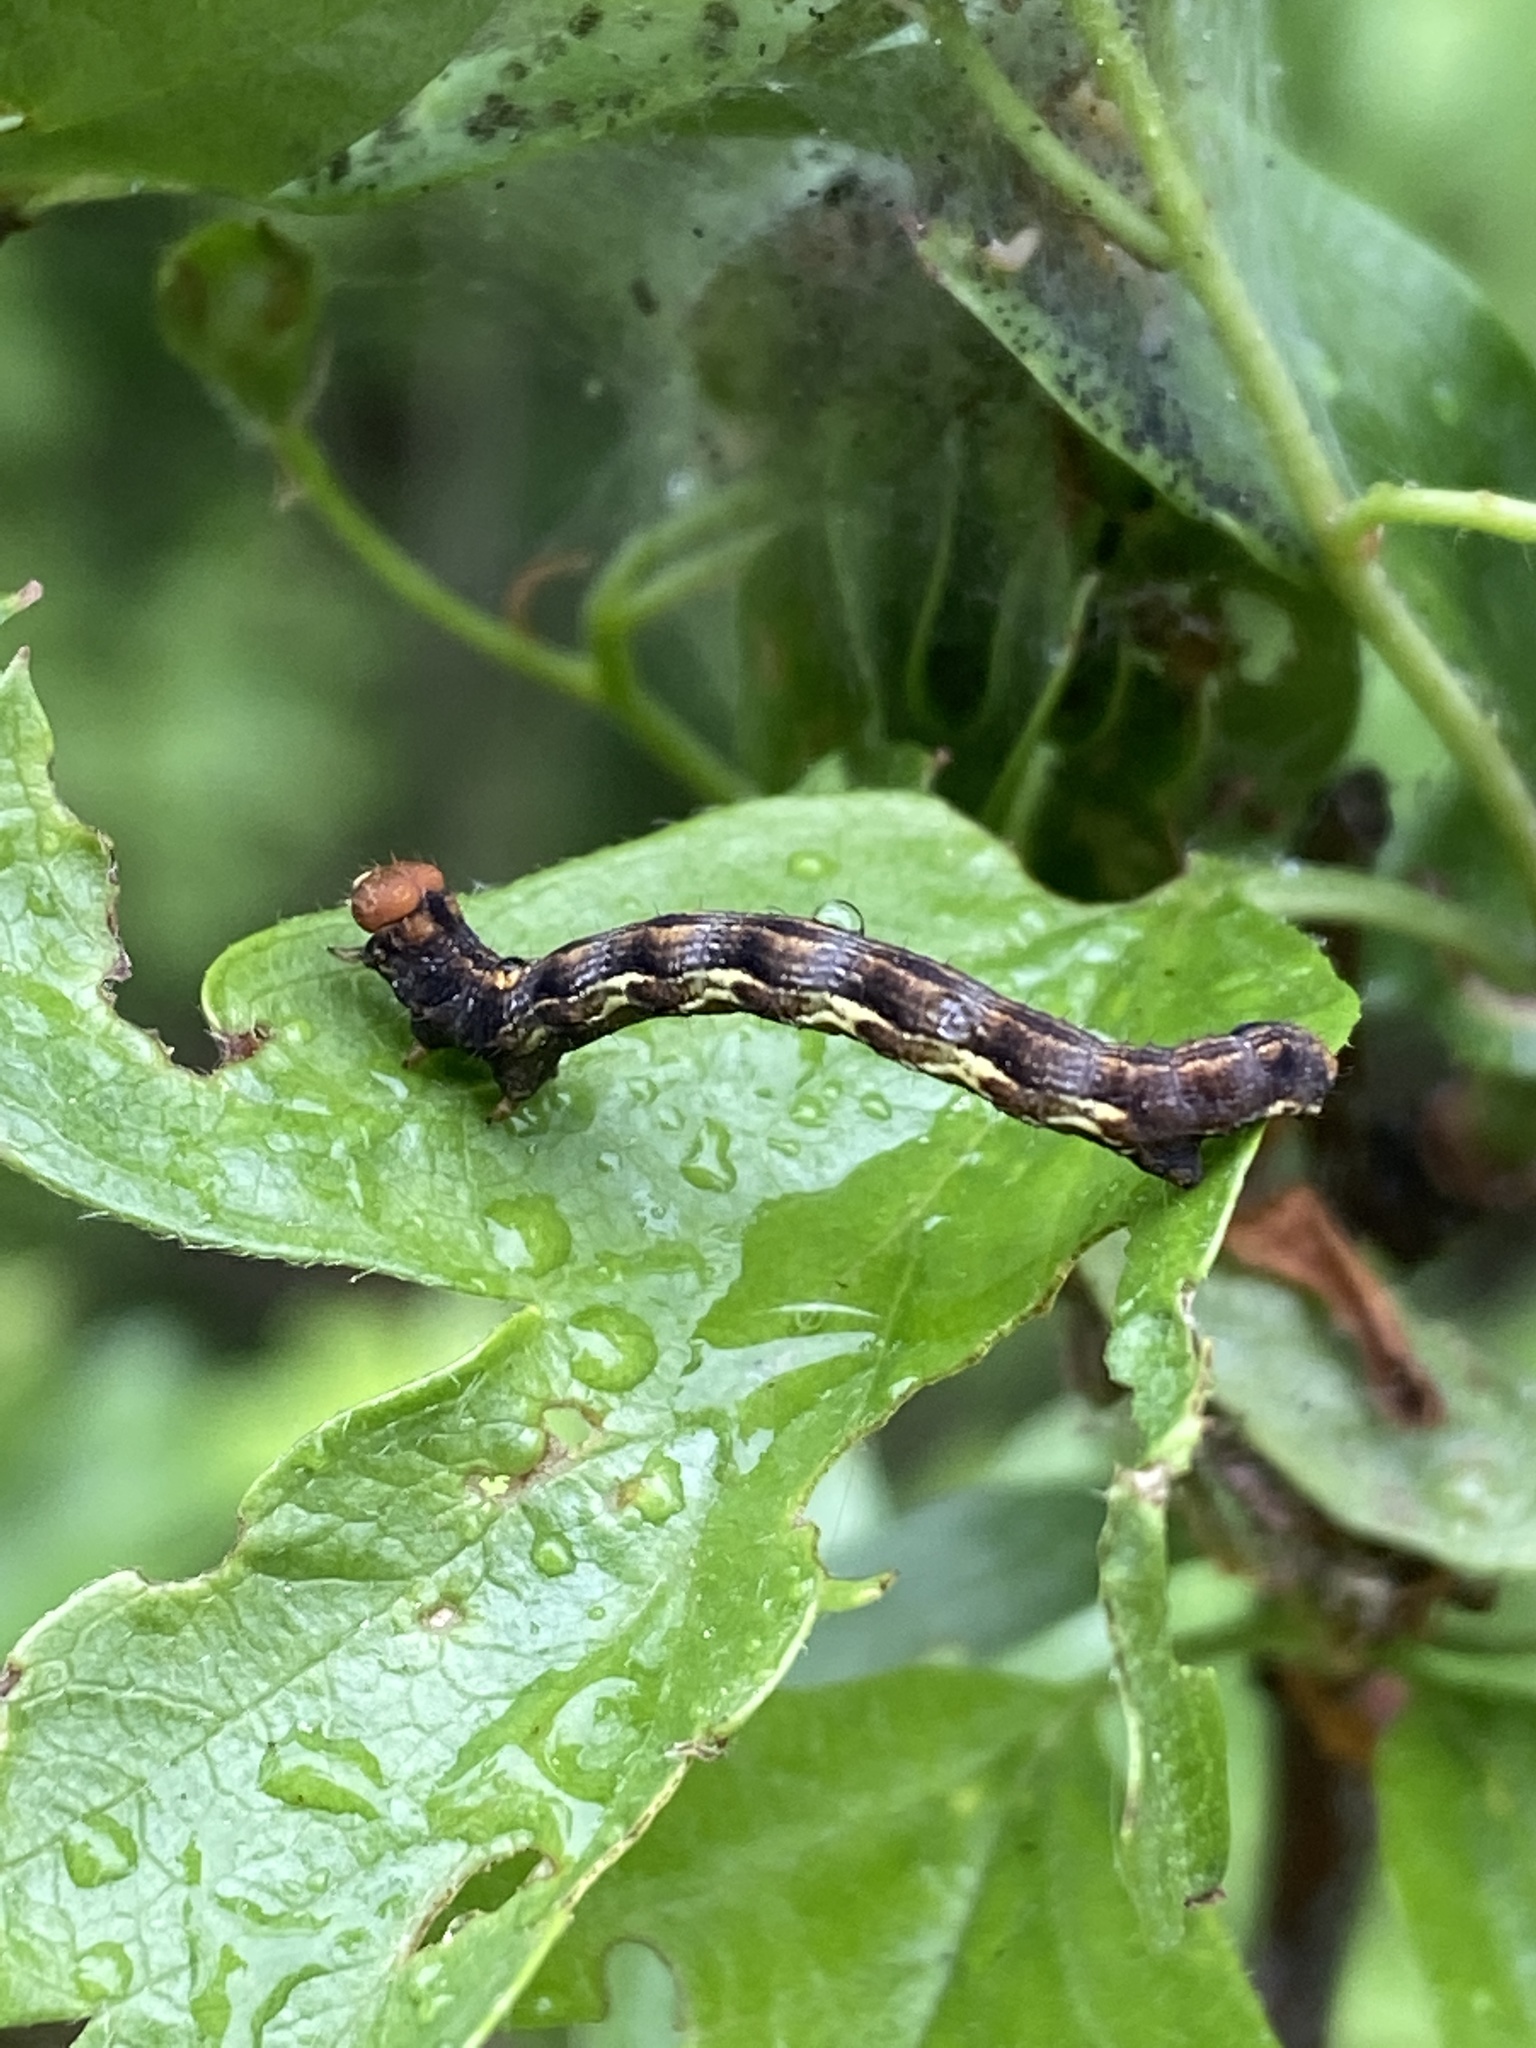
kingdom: Animalia
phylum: Arthropoda
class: Insecta
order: Lepidoptera
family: Geometridae
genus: Erannis
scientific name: Erannis defoliaria
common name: Mottled umber
